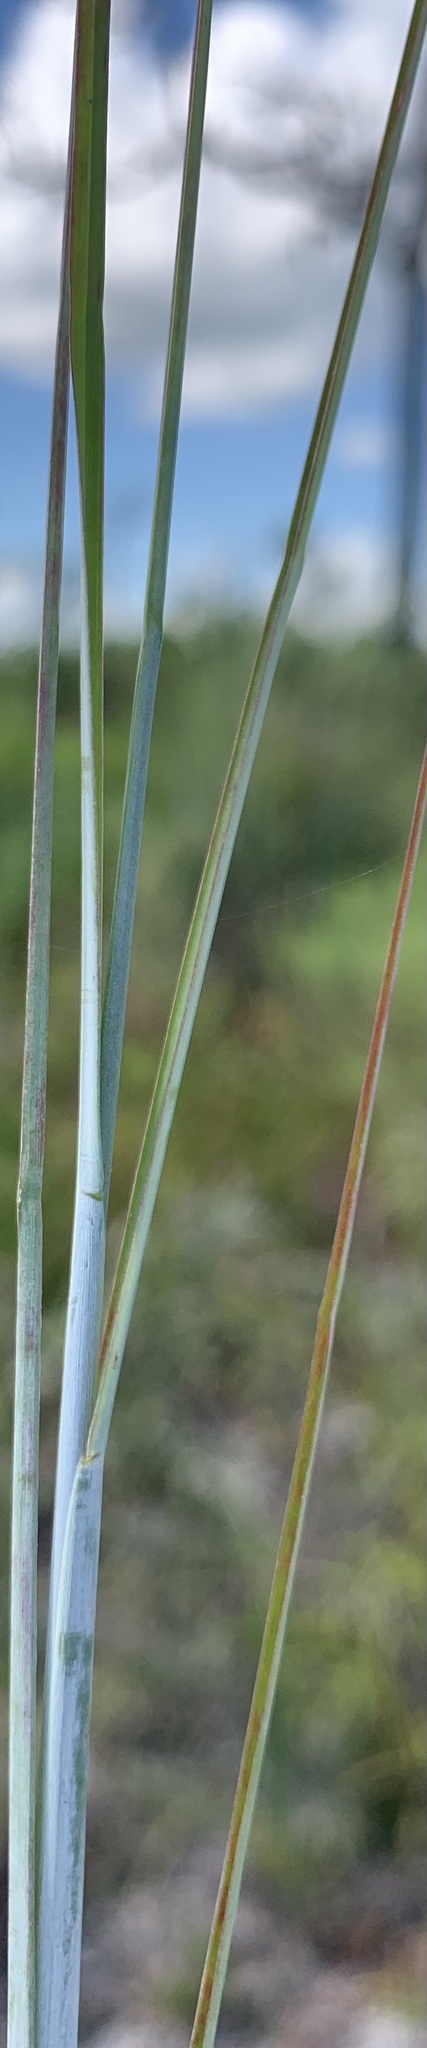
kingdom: Plantae
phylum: Tracheophyta
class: Liliopsida
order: Poales
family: Poaceae
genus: Andropogon
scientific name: Andropogon capillipes
